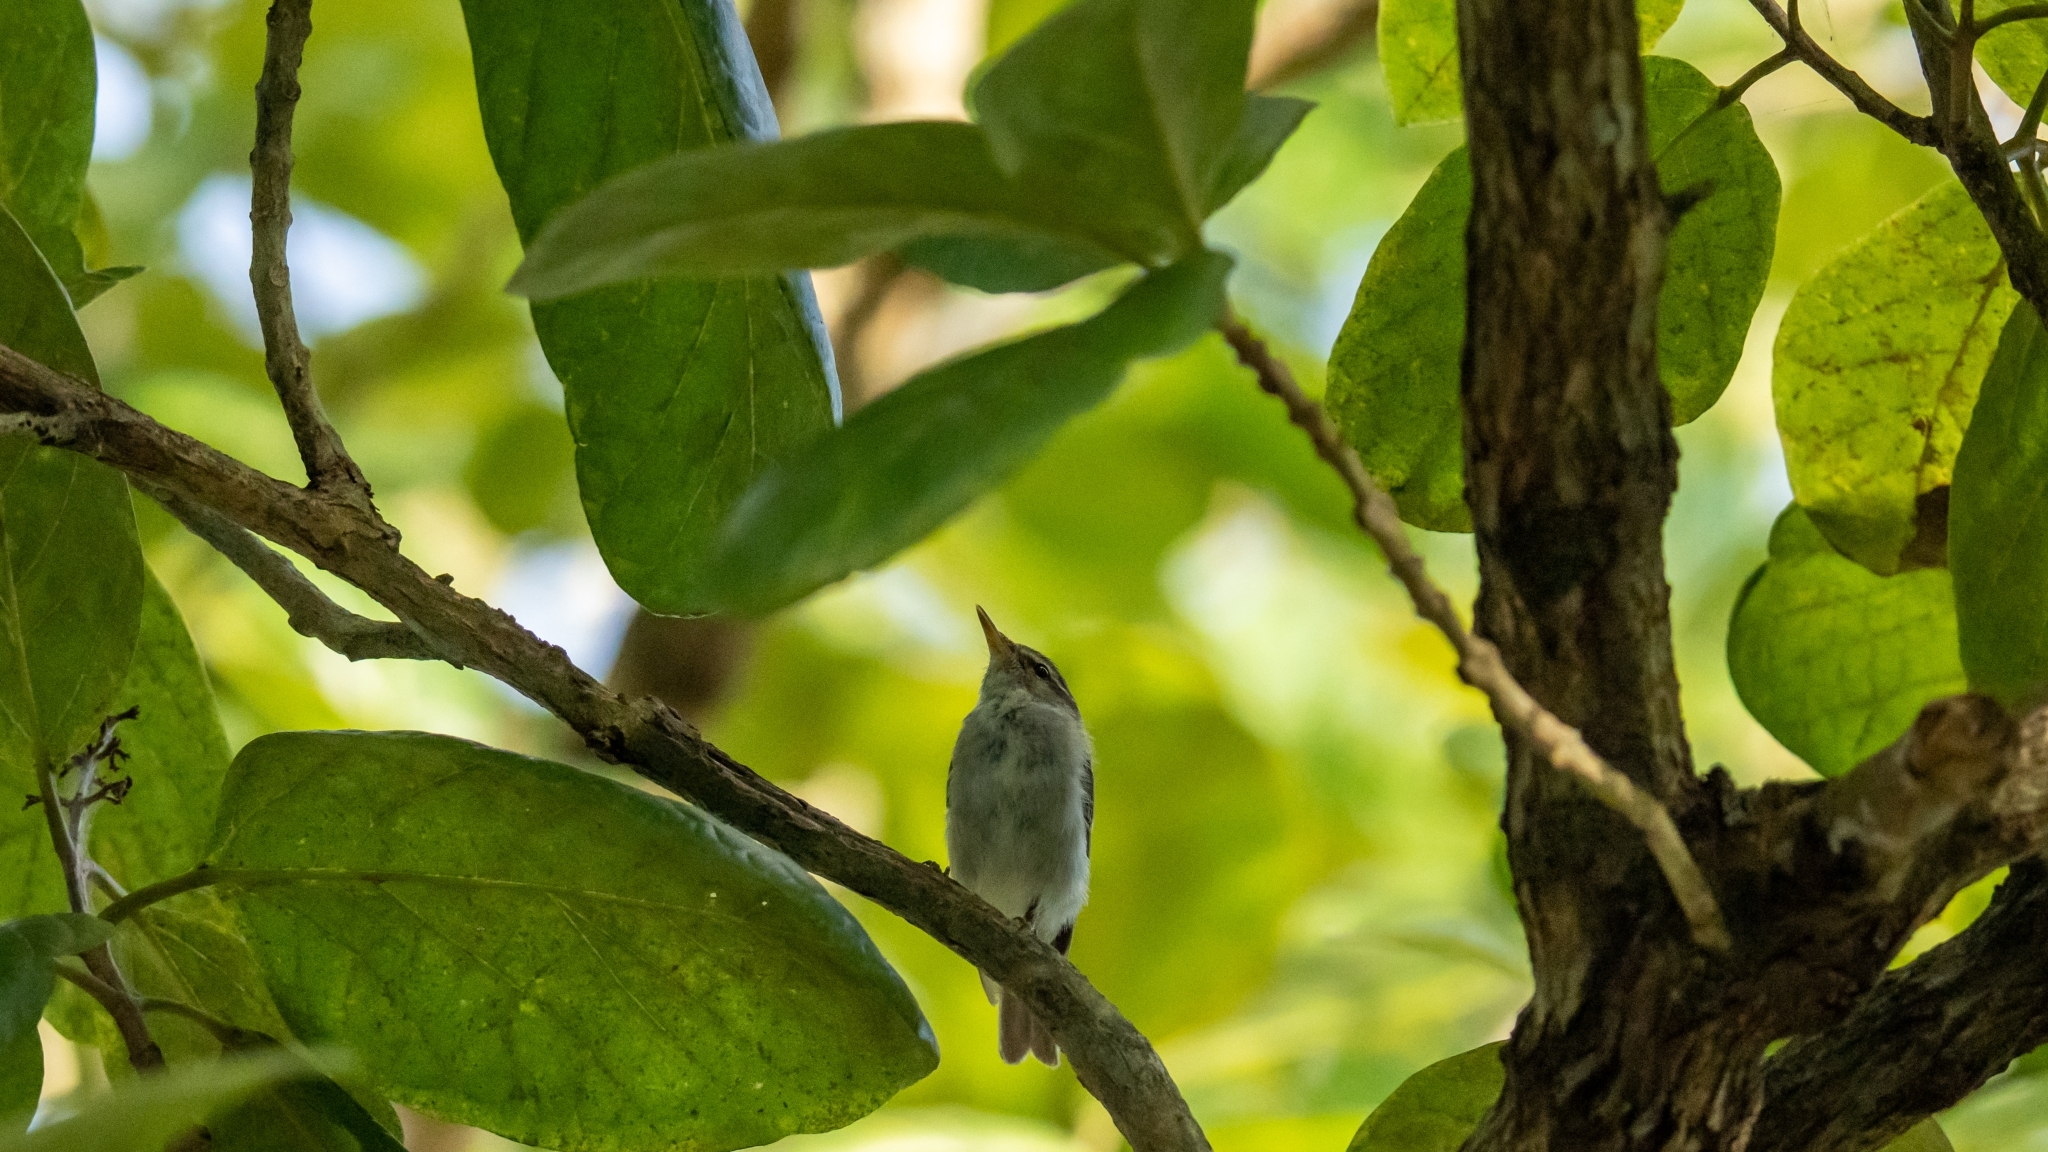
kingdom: Animalia
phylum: Chordata
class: Aves
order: Passeriformes
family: Phylloscopidae
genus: Phylloscopus
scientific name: Phylloscopus borealis
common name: Arctic warbler
